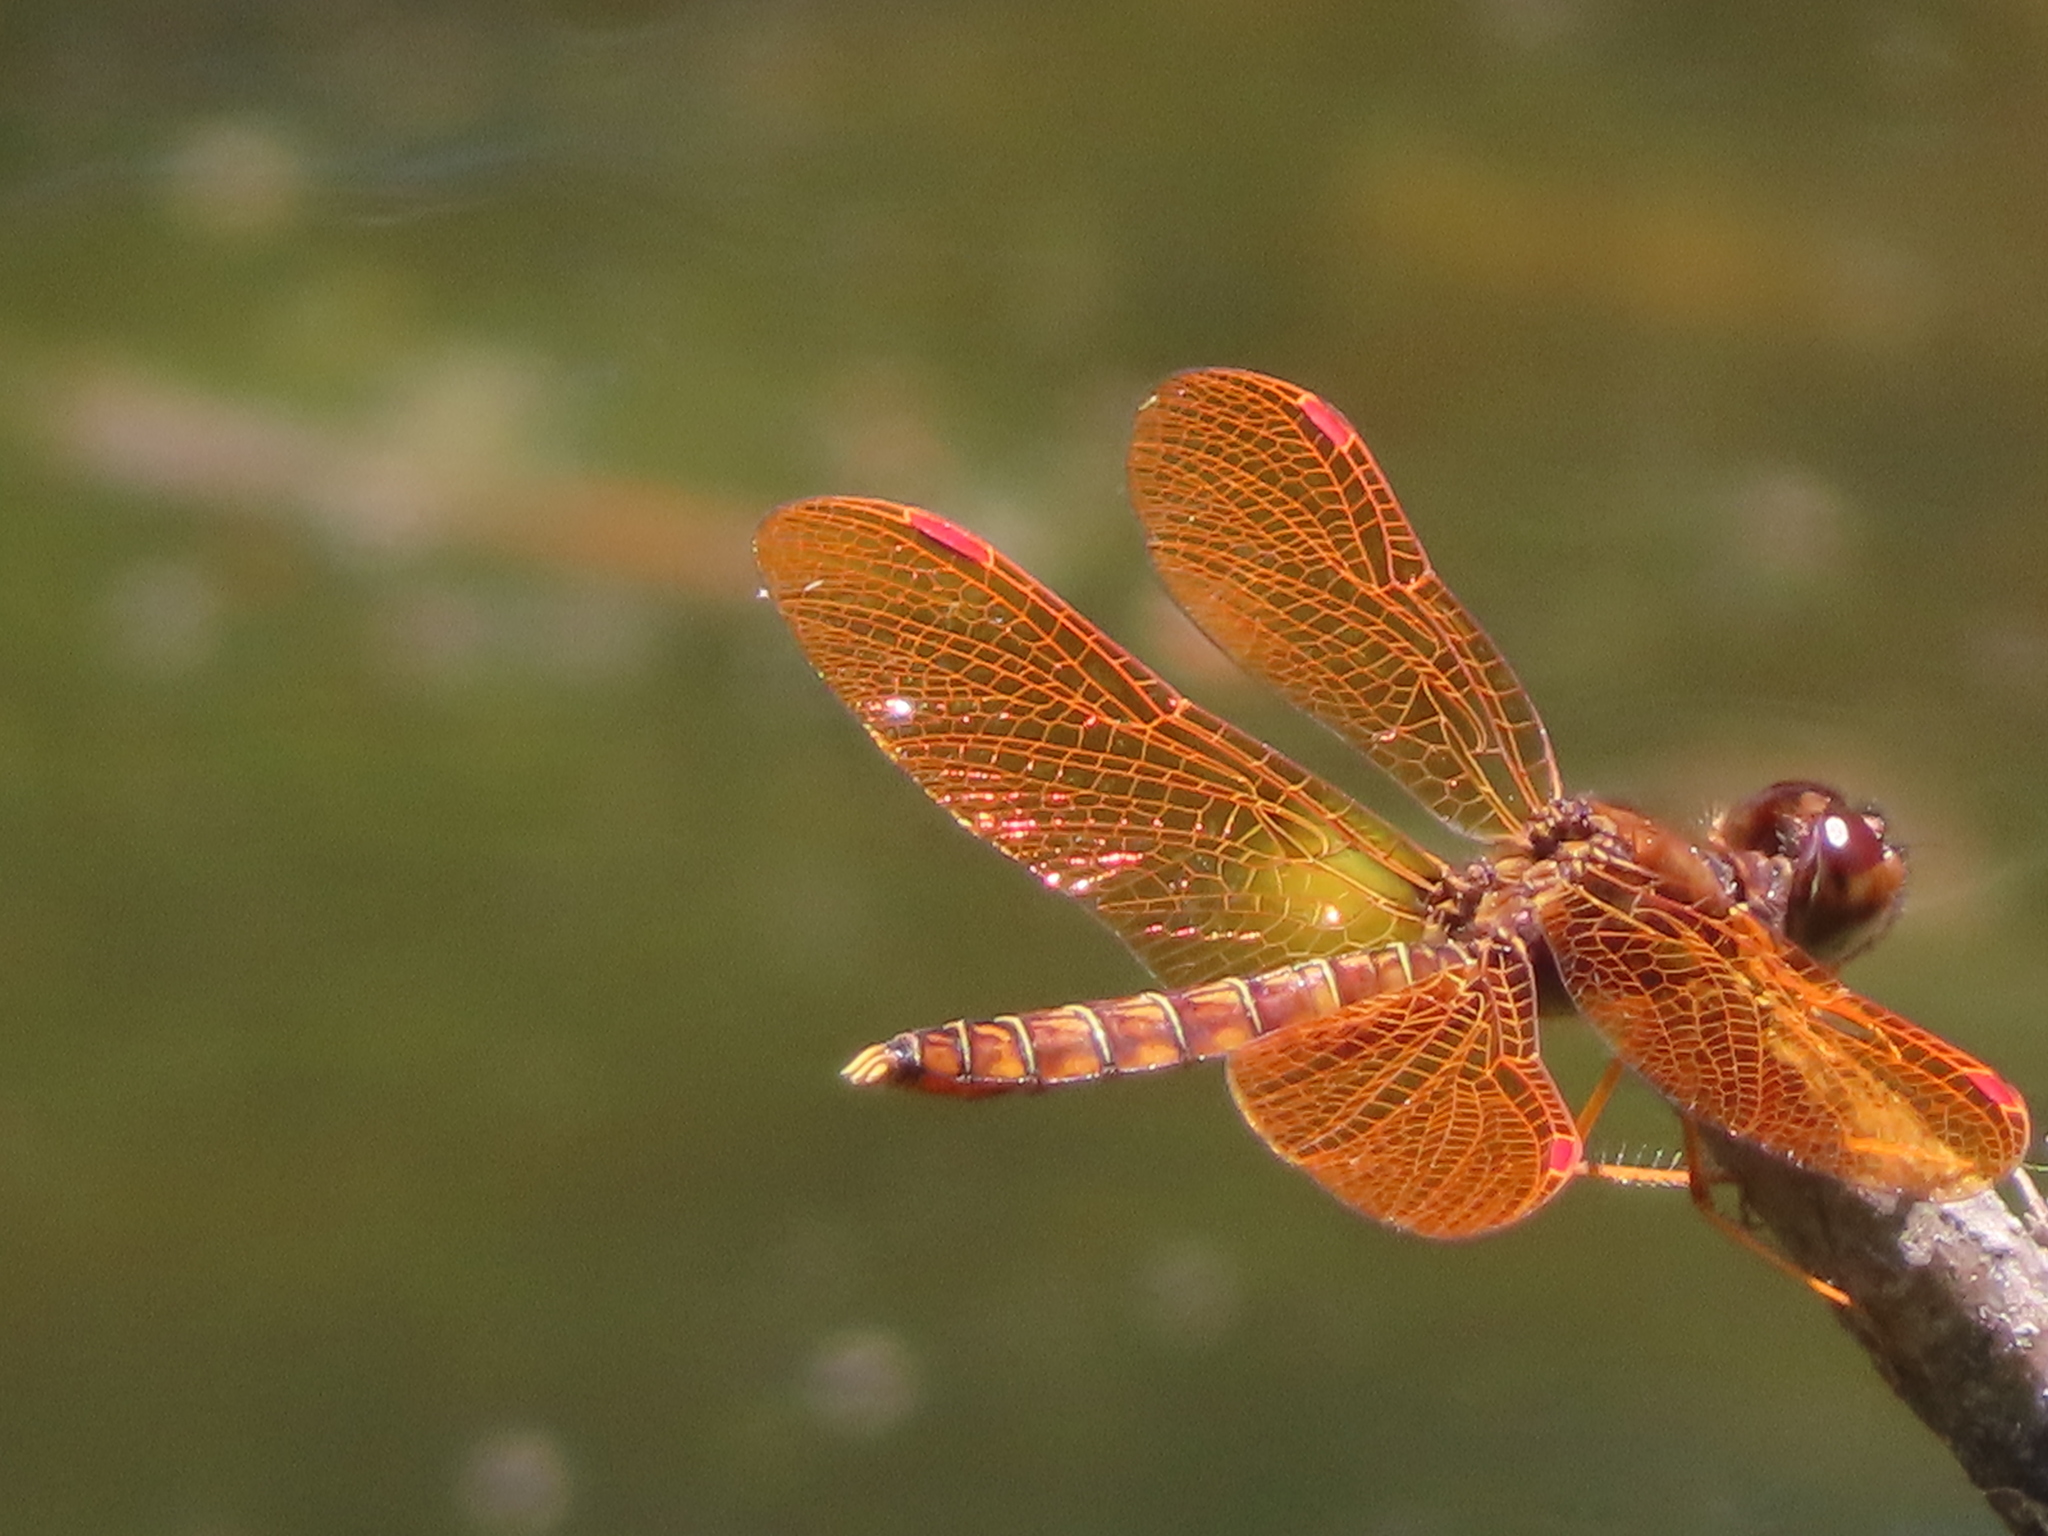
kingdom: Animalia
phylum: Arthropoda
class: Insecta
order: Odonata
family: Libellulidae
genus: Perithemis
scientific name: Perithemis tenera
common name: Eastern amberwing
